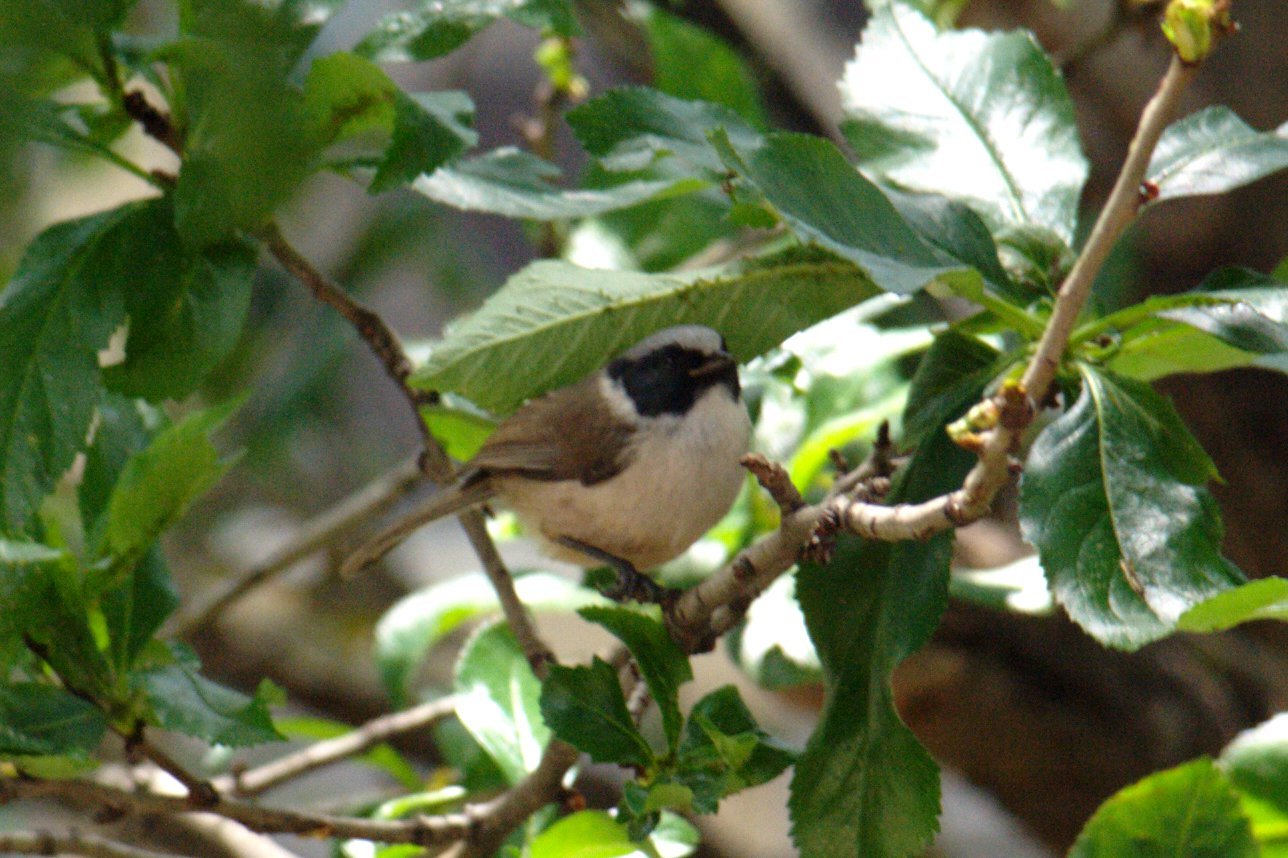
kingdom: Animalia
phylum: Chordata
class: Aves
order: Passeriformes
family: Aegithalidae
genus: Psaltriparus
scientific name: Psaltriparus minimus
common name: American bushtit
